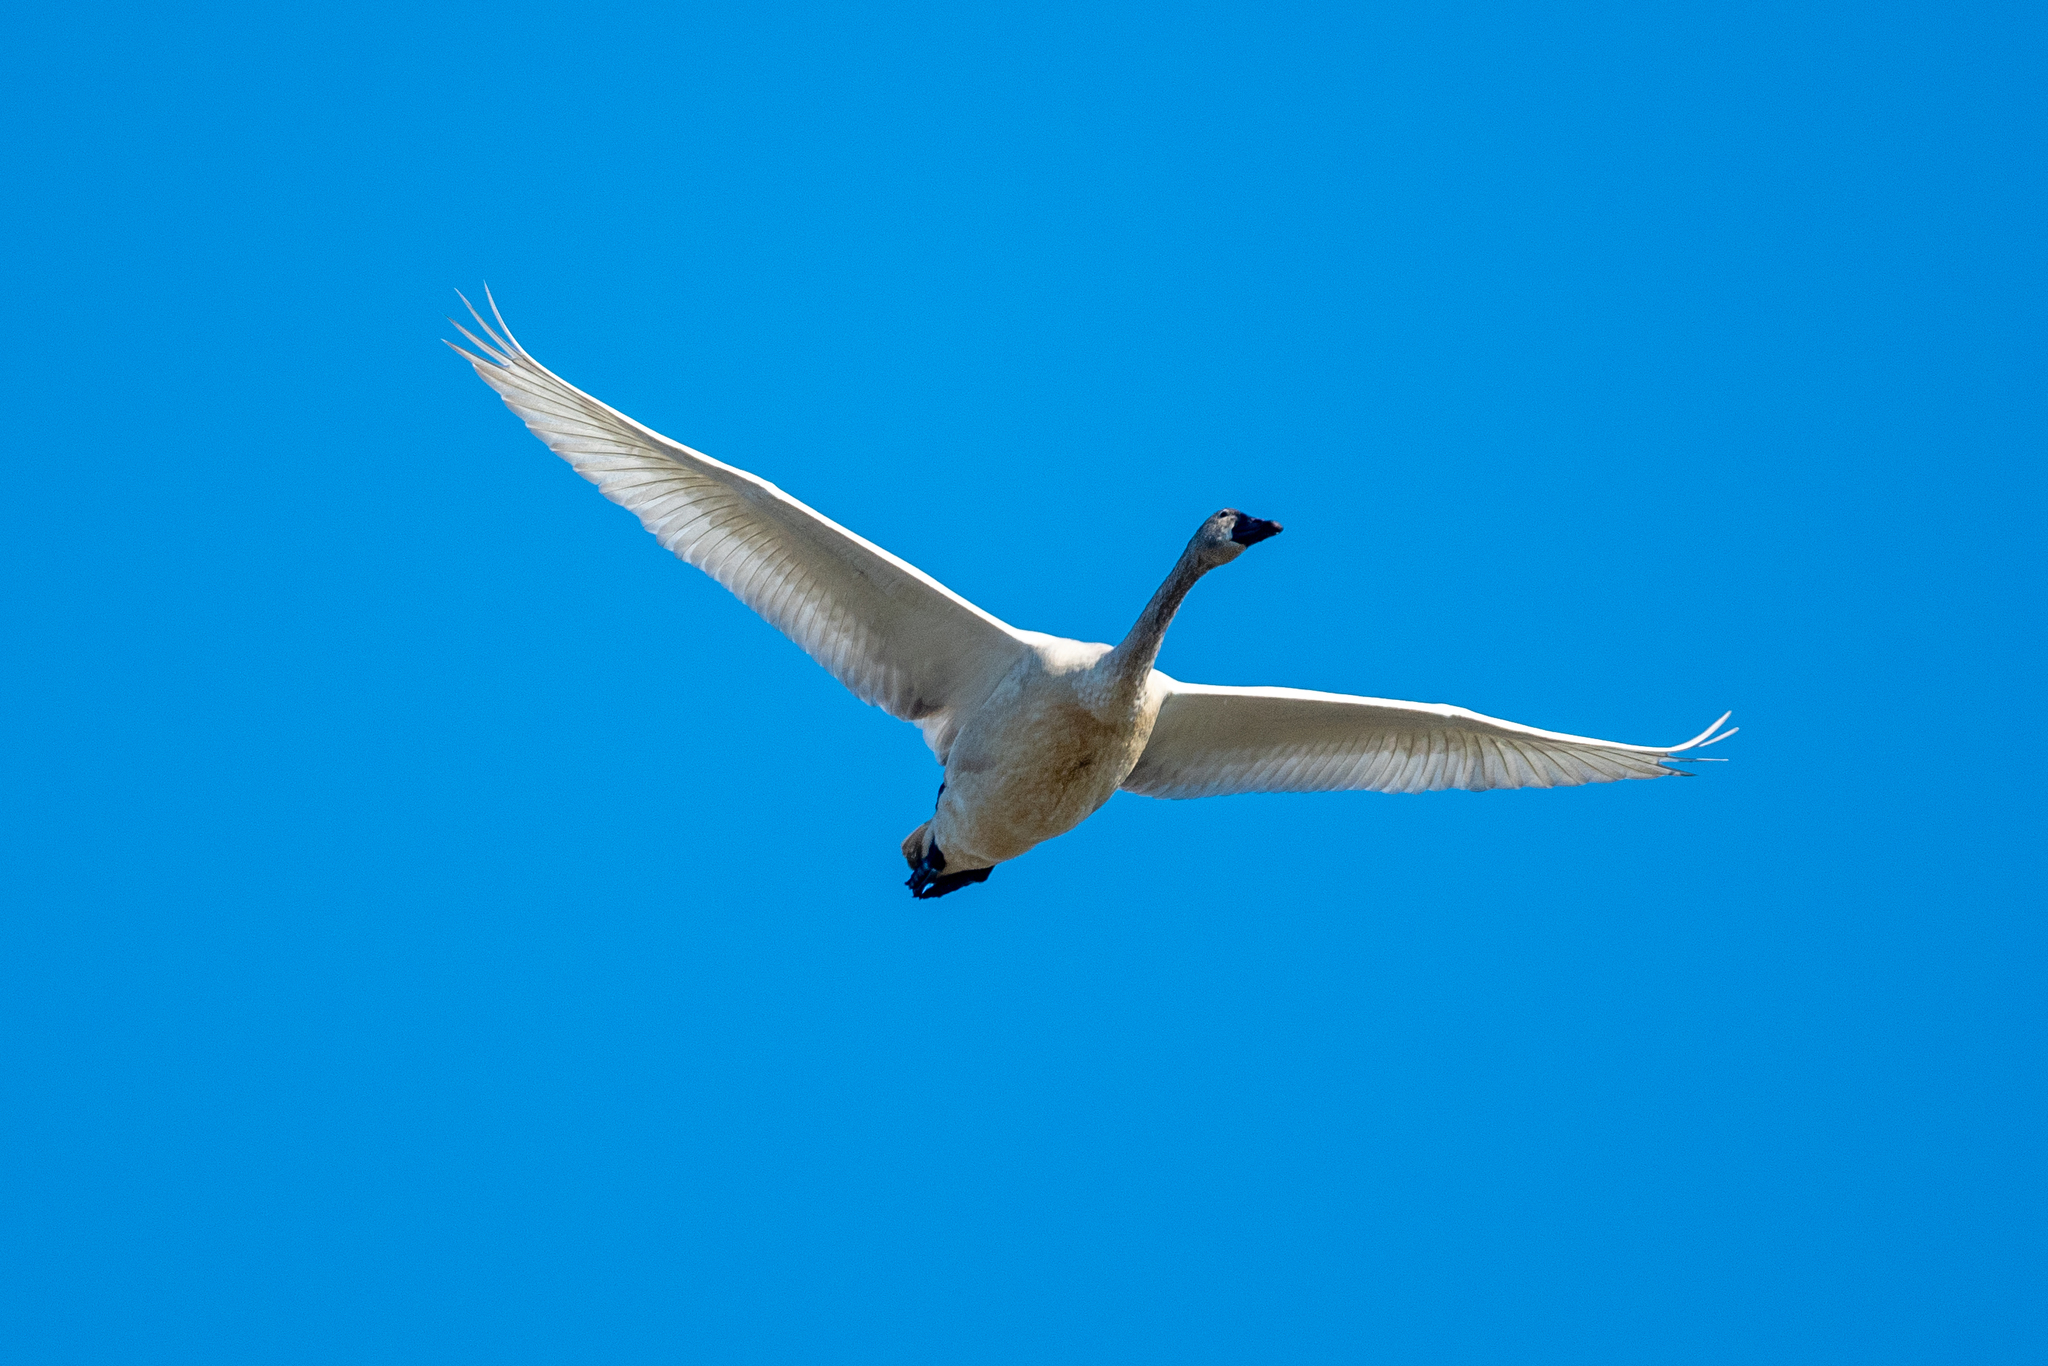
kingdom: Animalia
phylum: Chordata
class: Aves
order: Anseriformes
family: Anatidae
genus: Cygnus
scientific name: Cygnus columbianus
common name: Tundra swan
